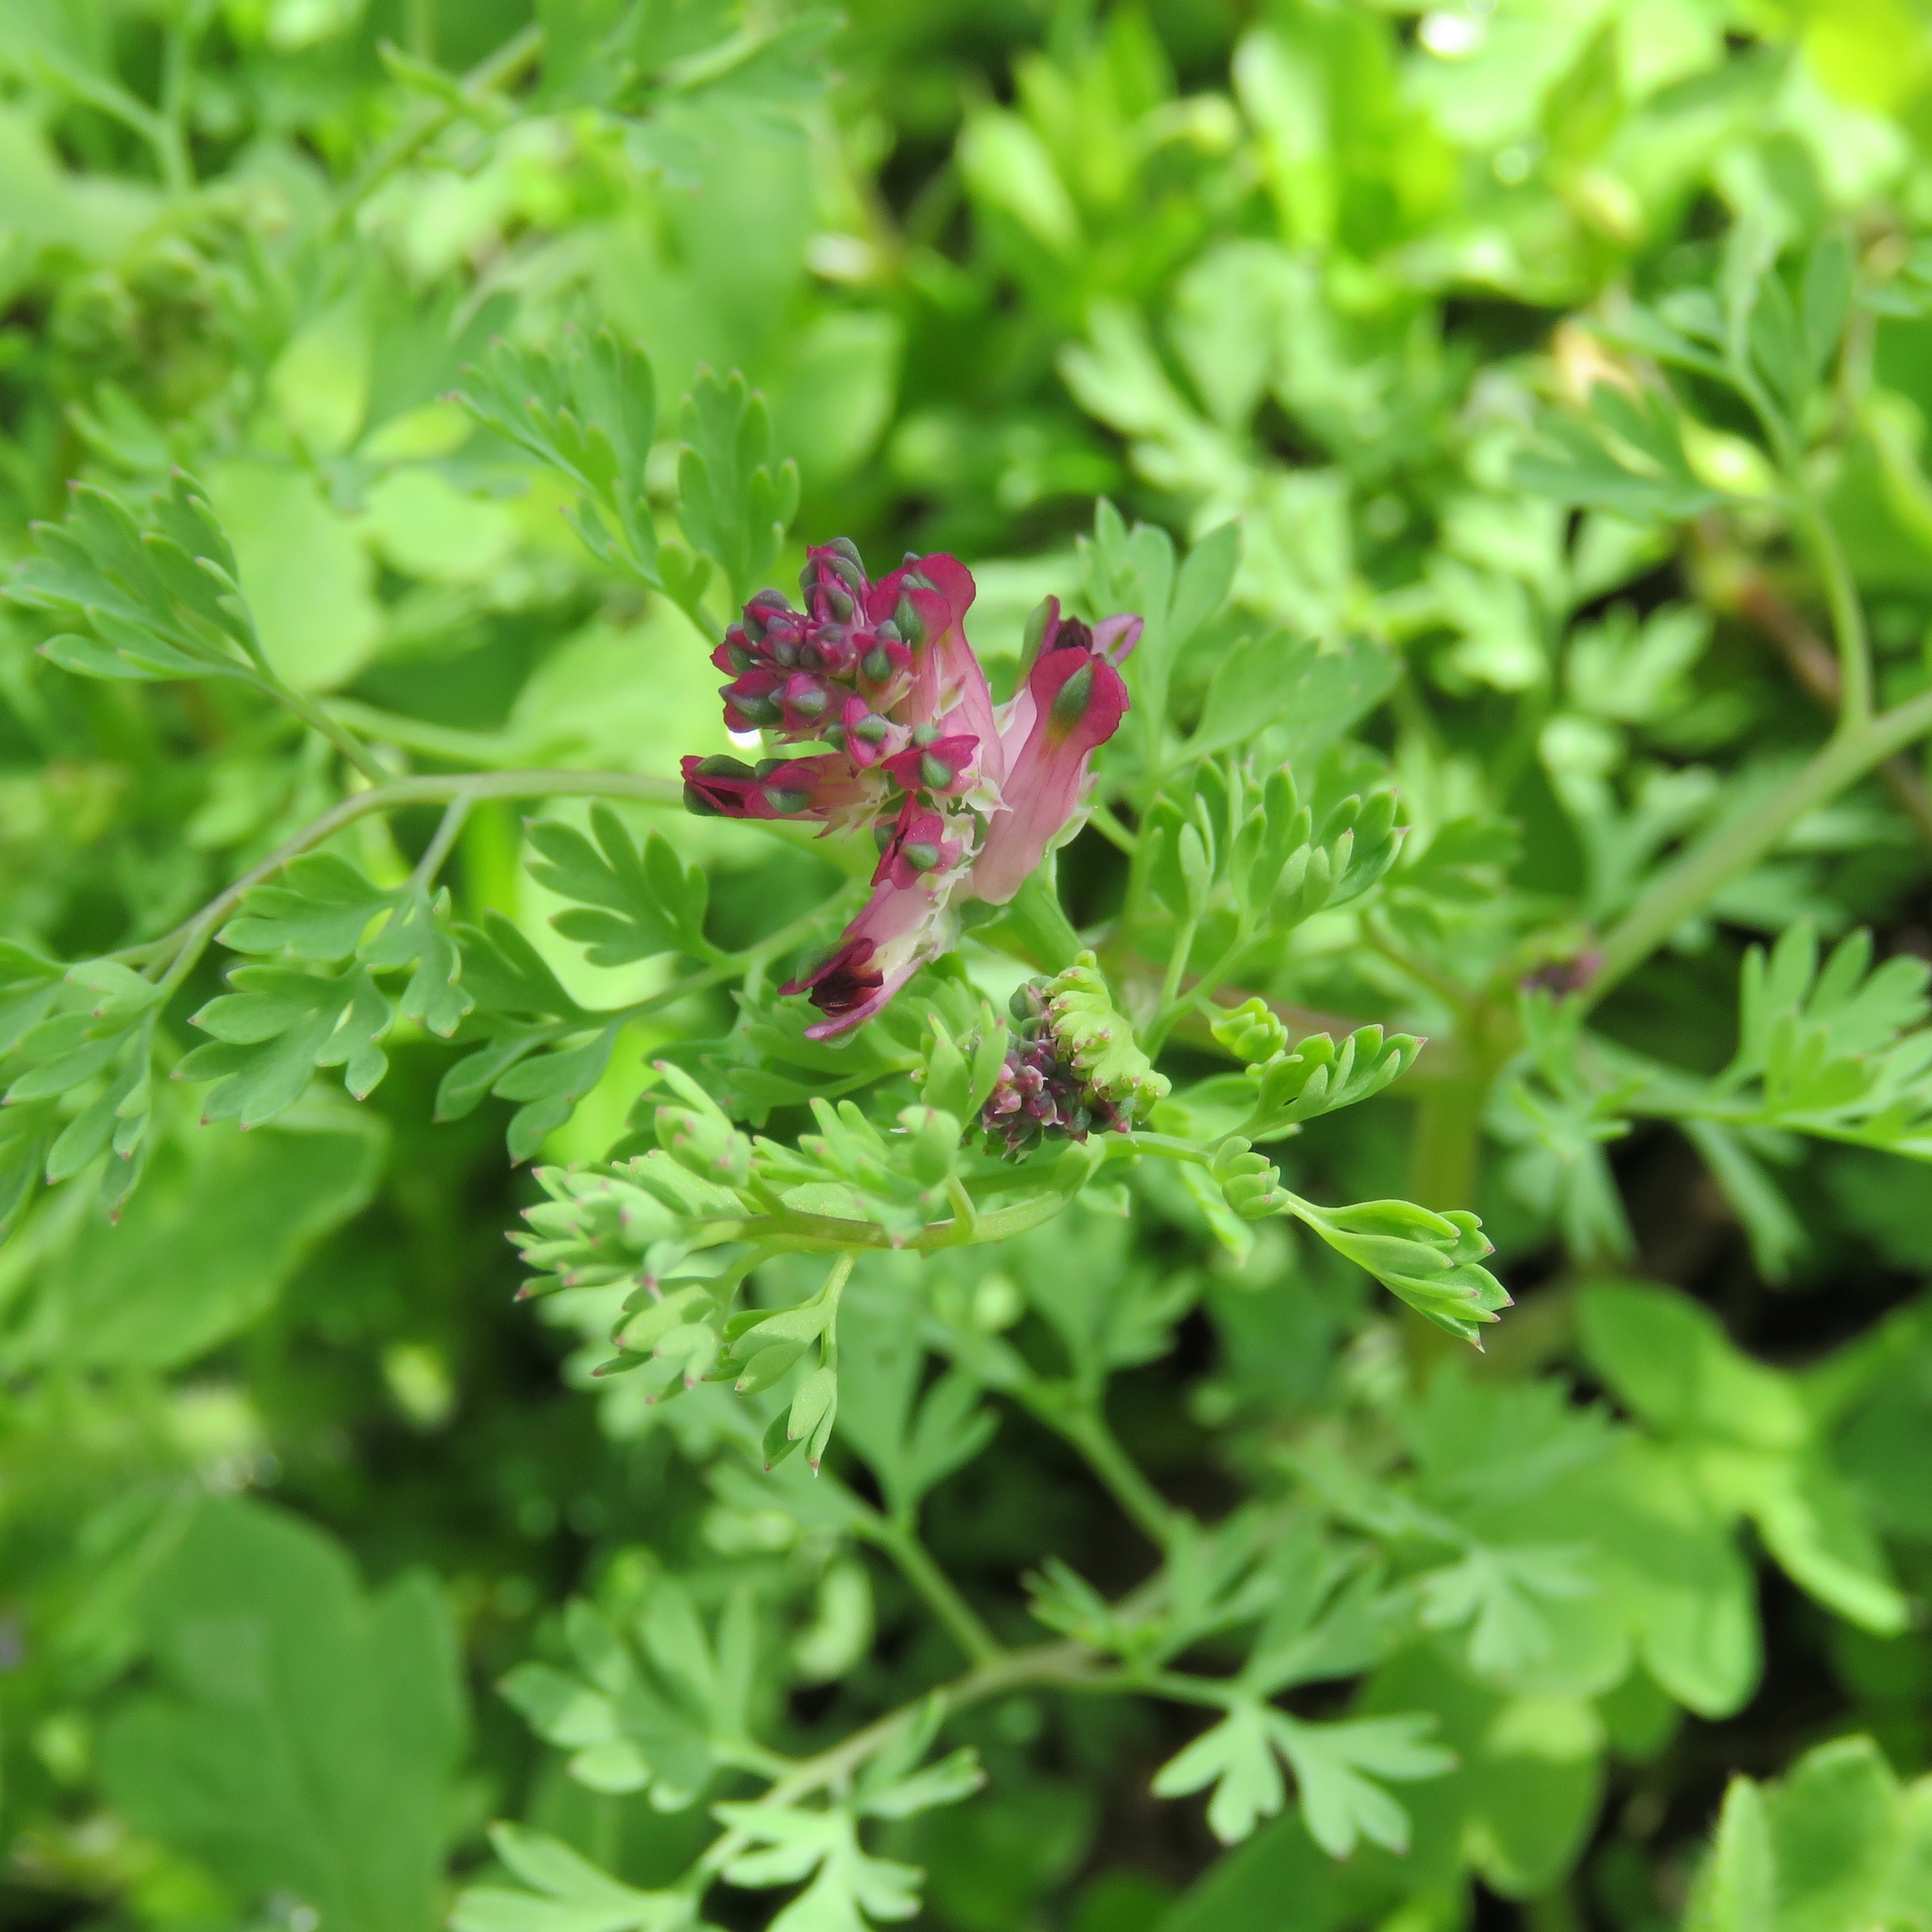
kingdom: Plantae
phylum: Tracheophyta
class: Magnoliopsida
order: Ranunculales
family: Papaveraceae
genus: Fumaria
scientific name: Fumaria officinalis
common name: Common fumitory
